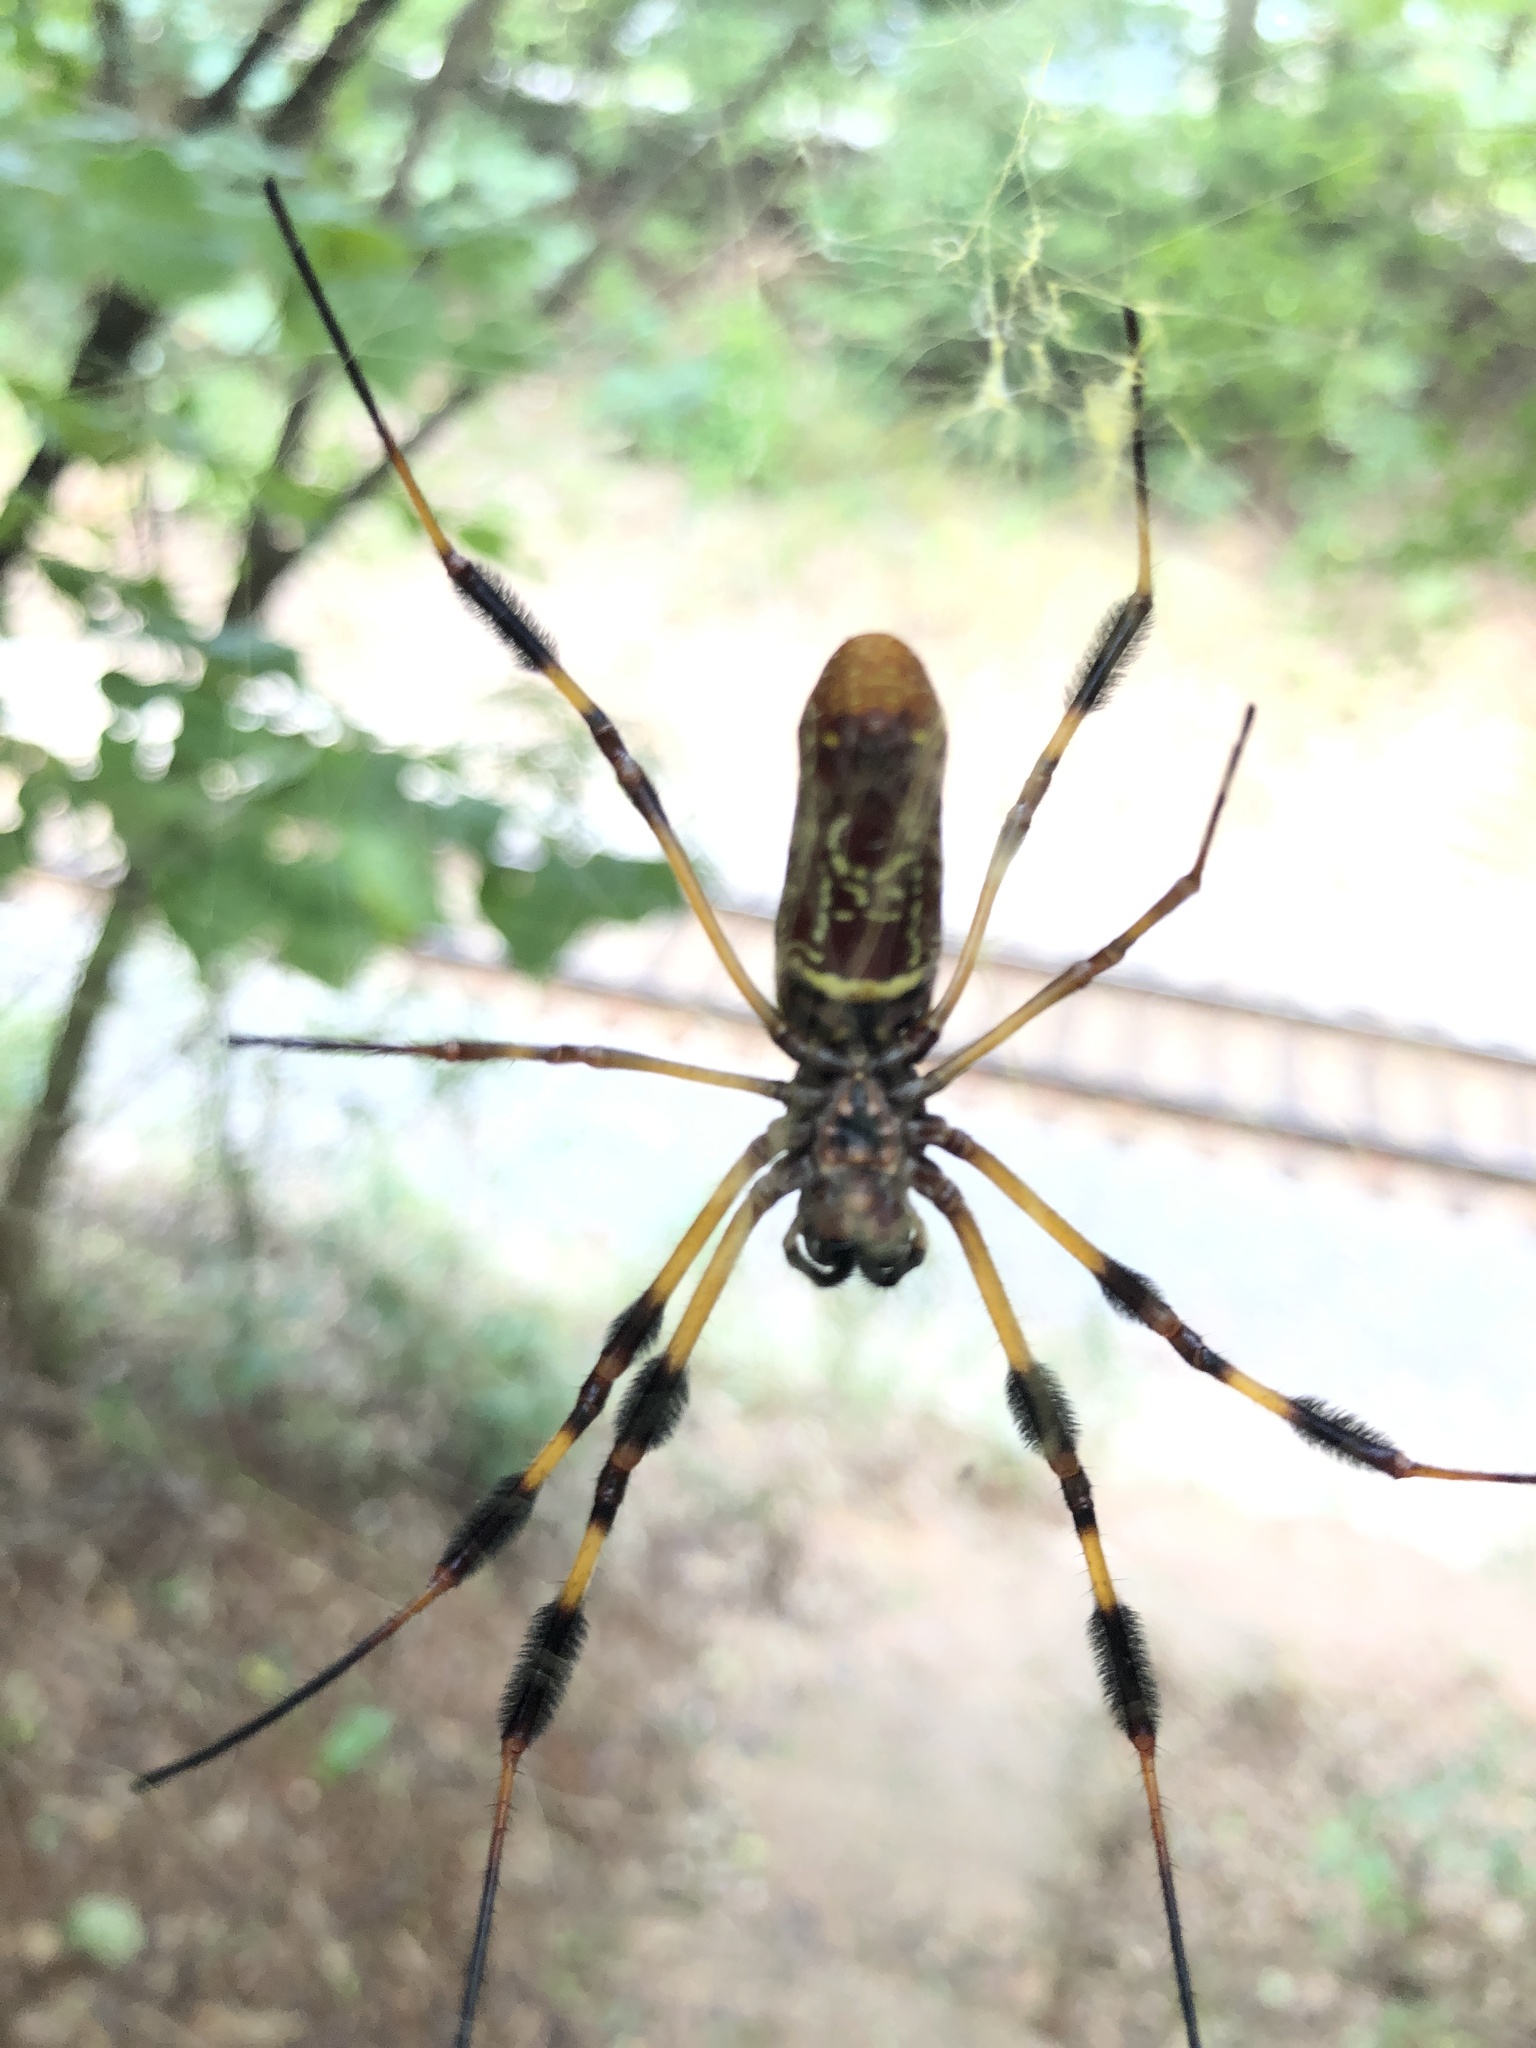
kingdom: Animalia
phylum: Arthropoda
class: Arachnida
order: Araneae
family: Araneidae
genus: Trichonephila
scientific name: Trichonephila clavipes
